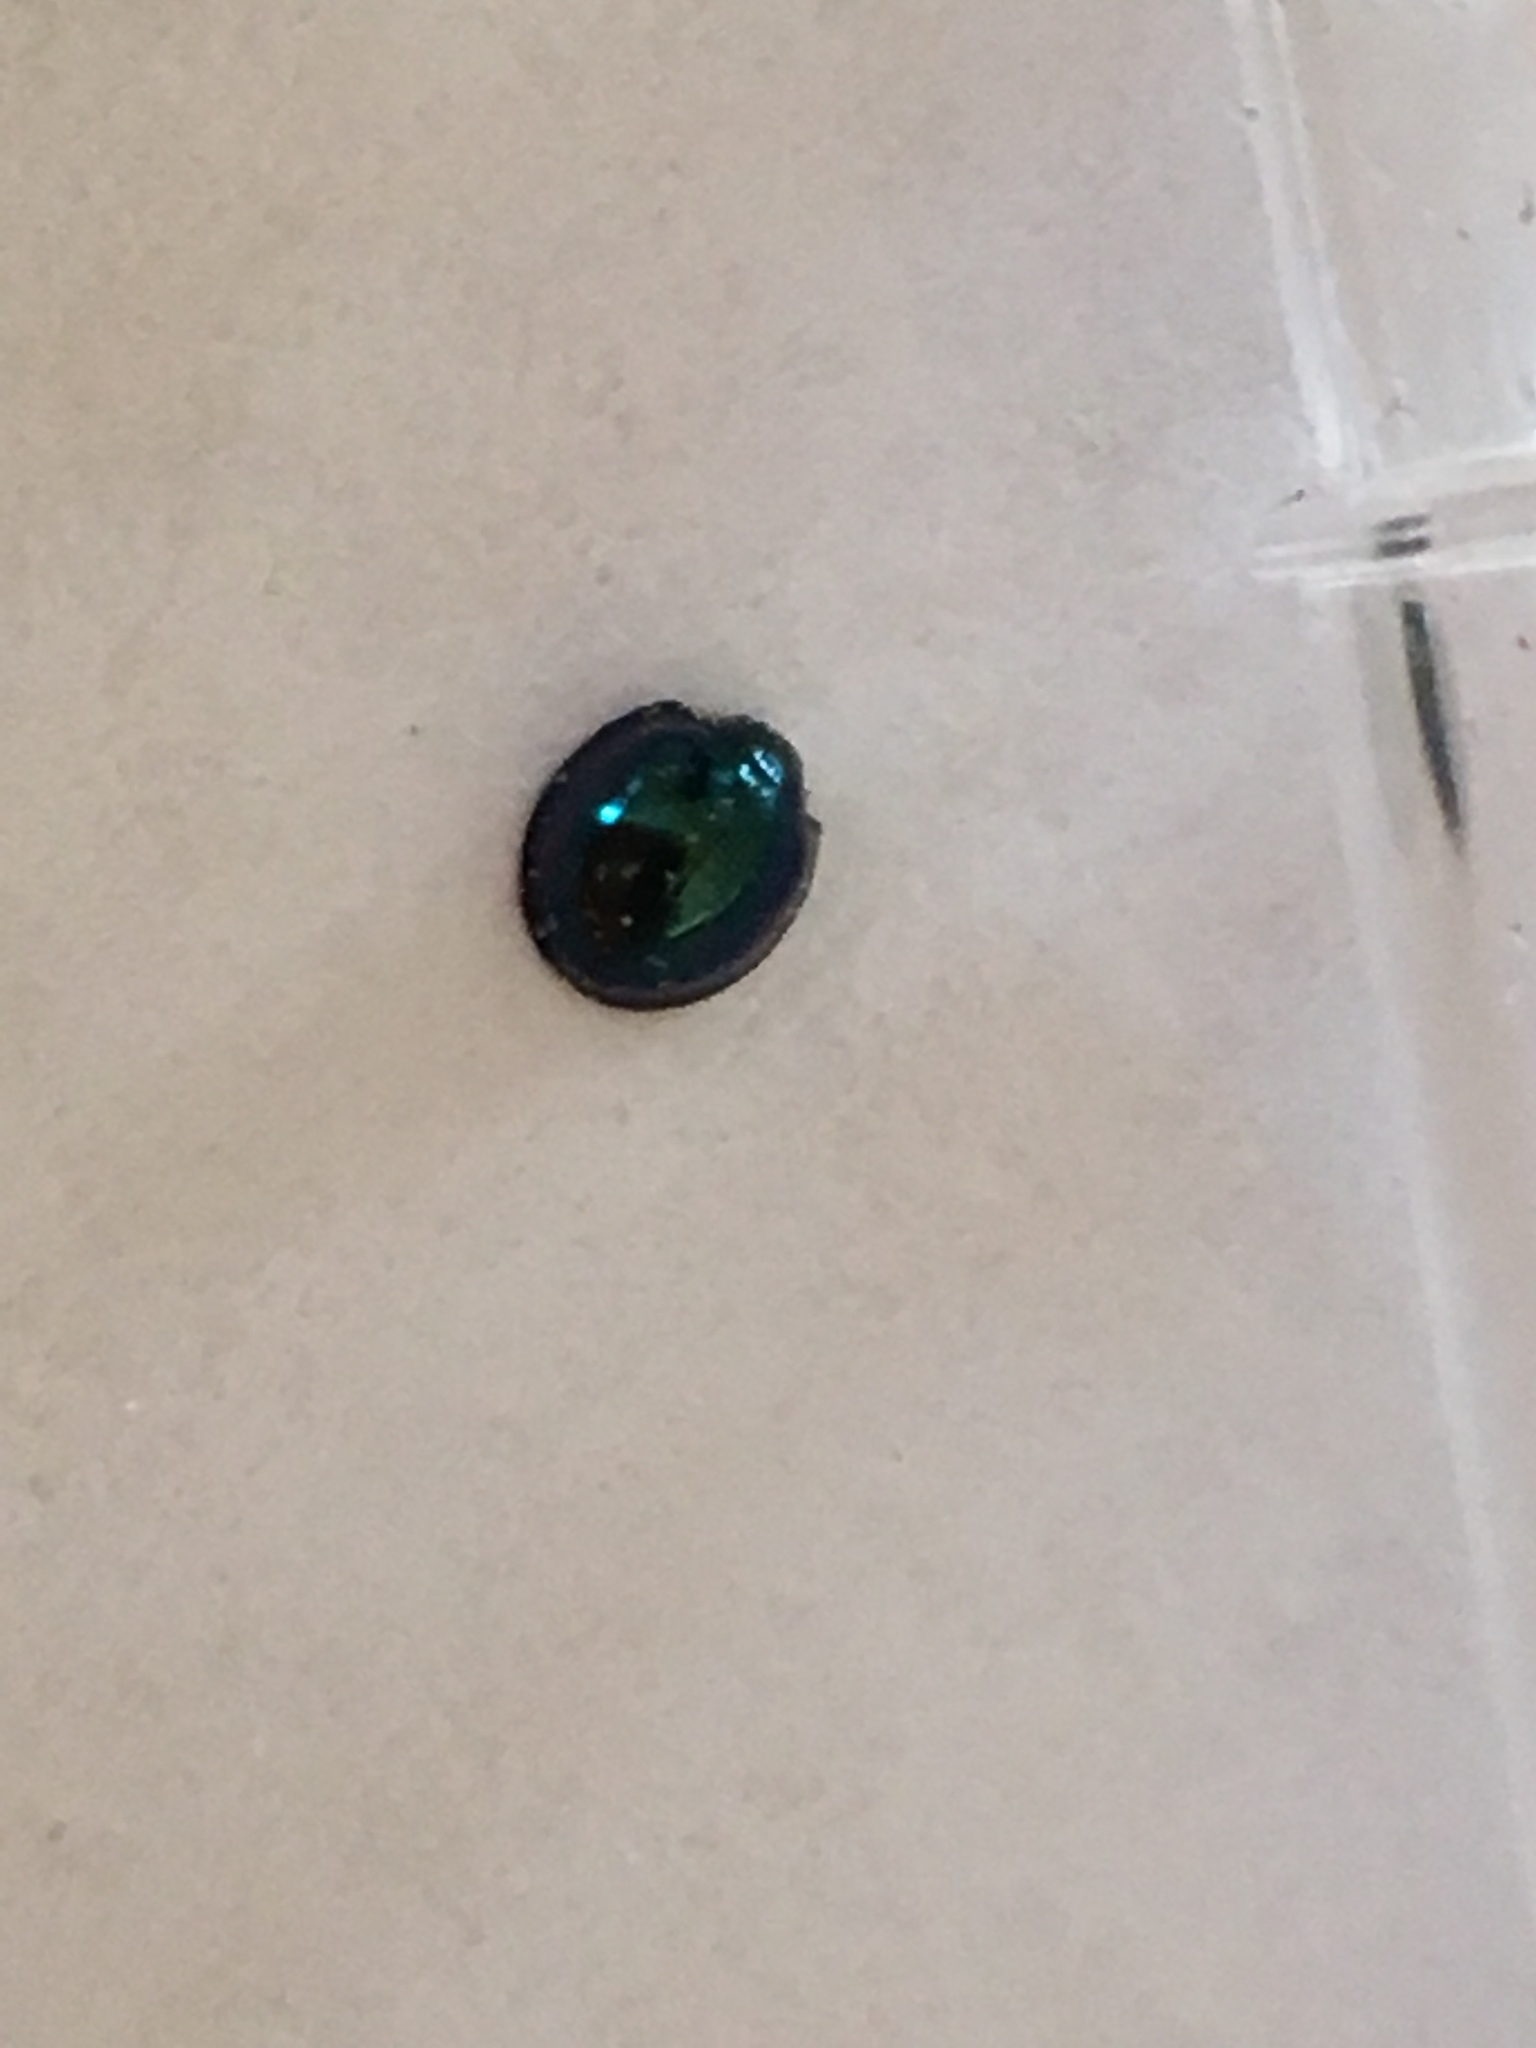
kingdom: Animalia
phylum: Arthropoda
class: Insecta
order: Coleoptera
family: Coccinellidae
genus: Halmus
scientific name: Halmus chalybeus
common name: Steel blue ladybird beetle
